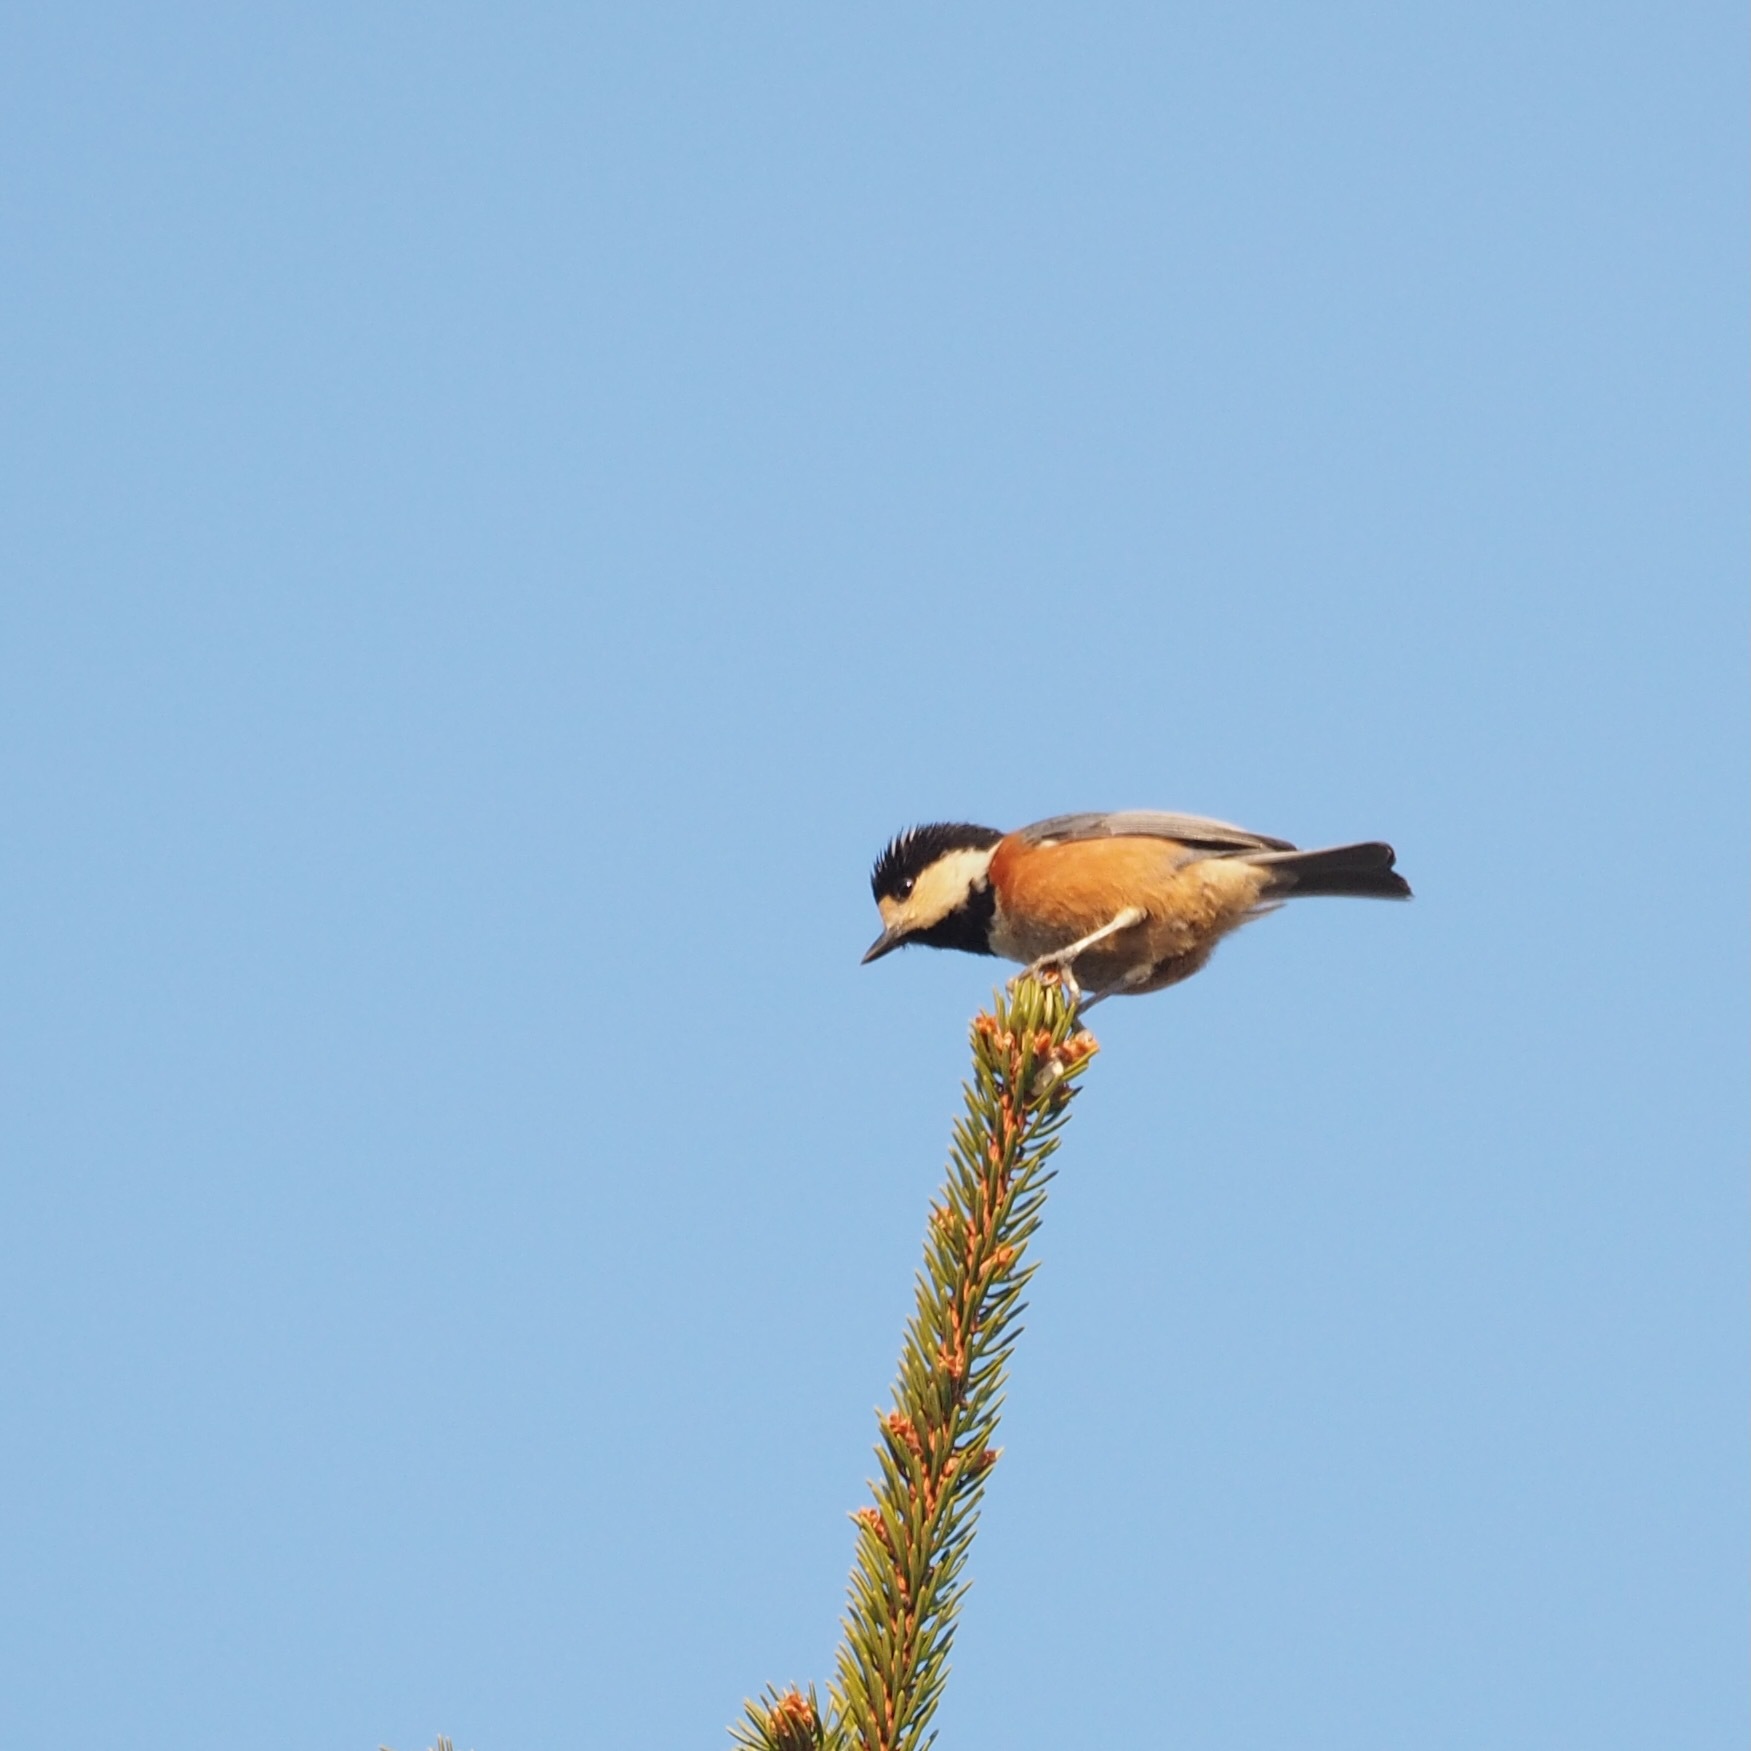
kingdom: Animalia
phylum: Chordata
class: Aves
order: Passeriformes
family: Paridae
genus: Poecile
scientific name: Poecile varius
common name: Varied tit
